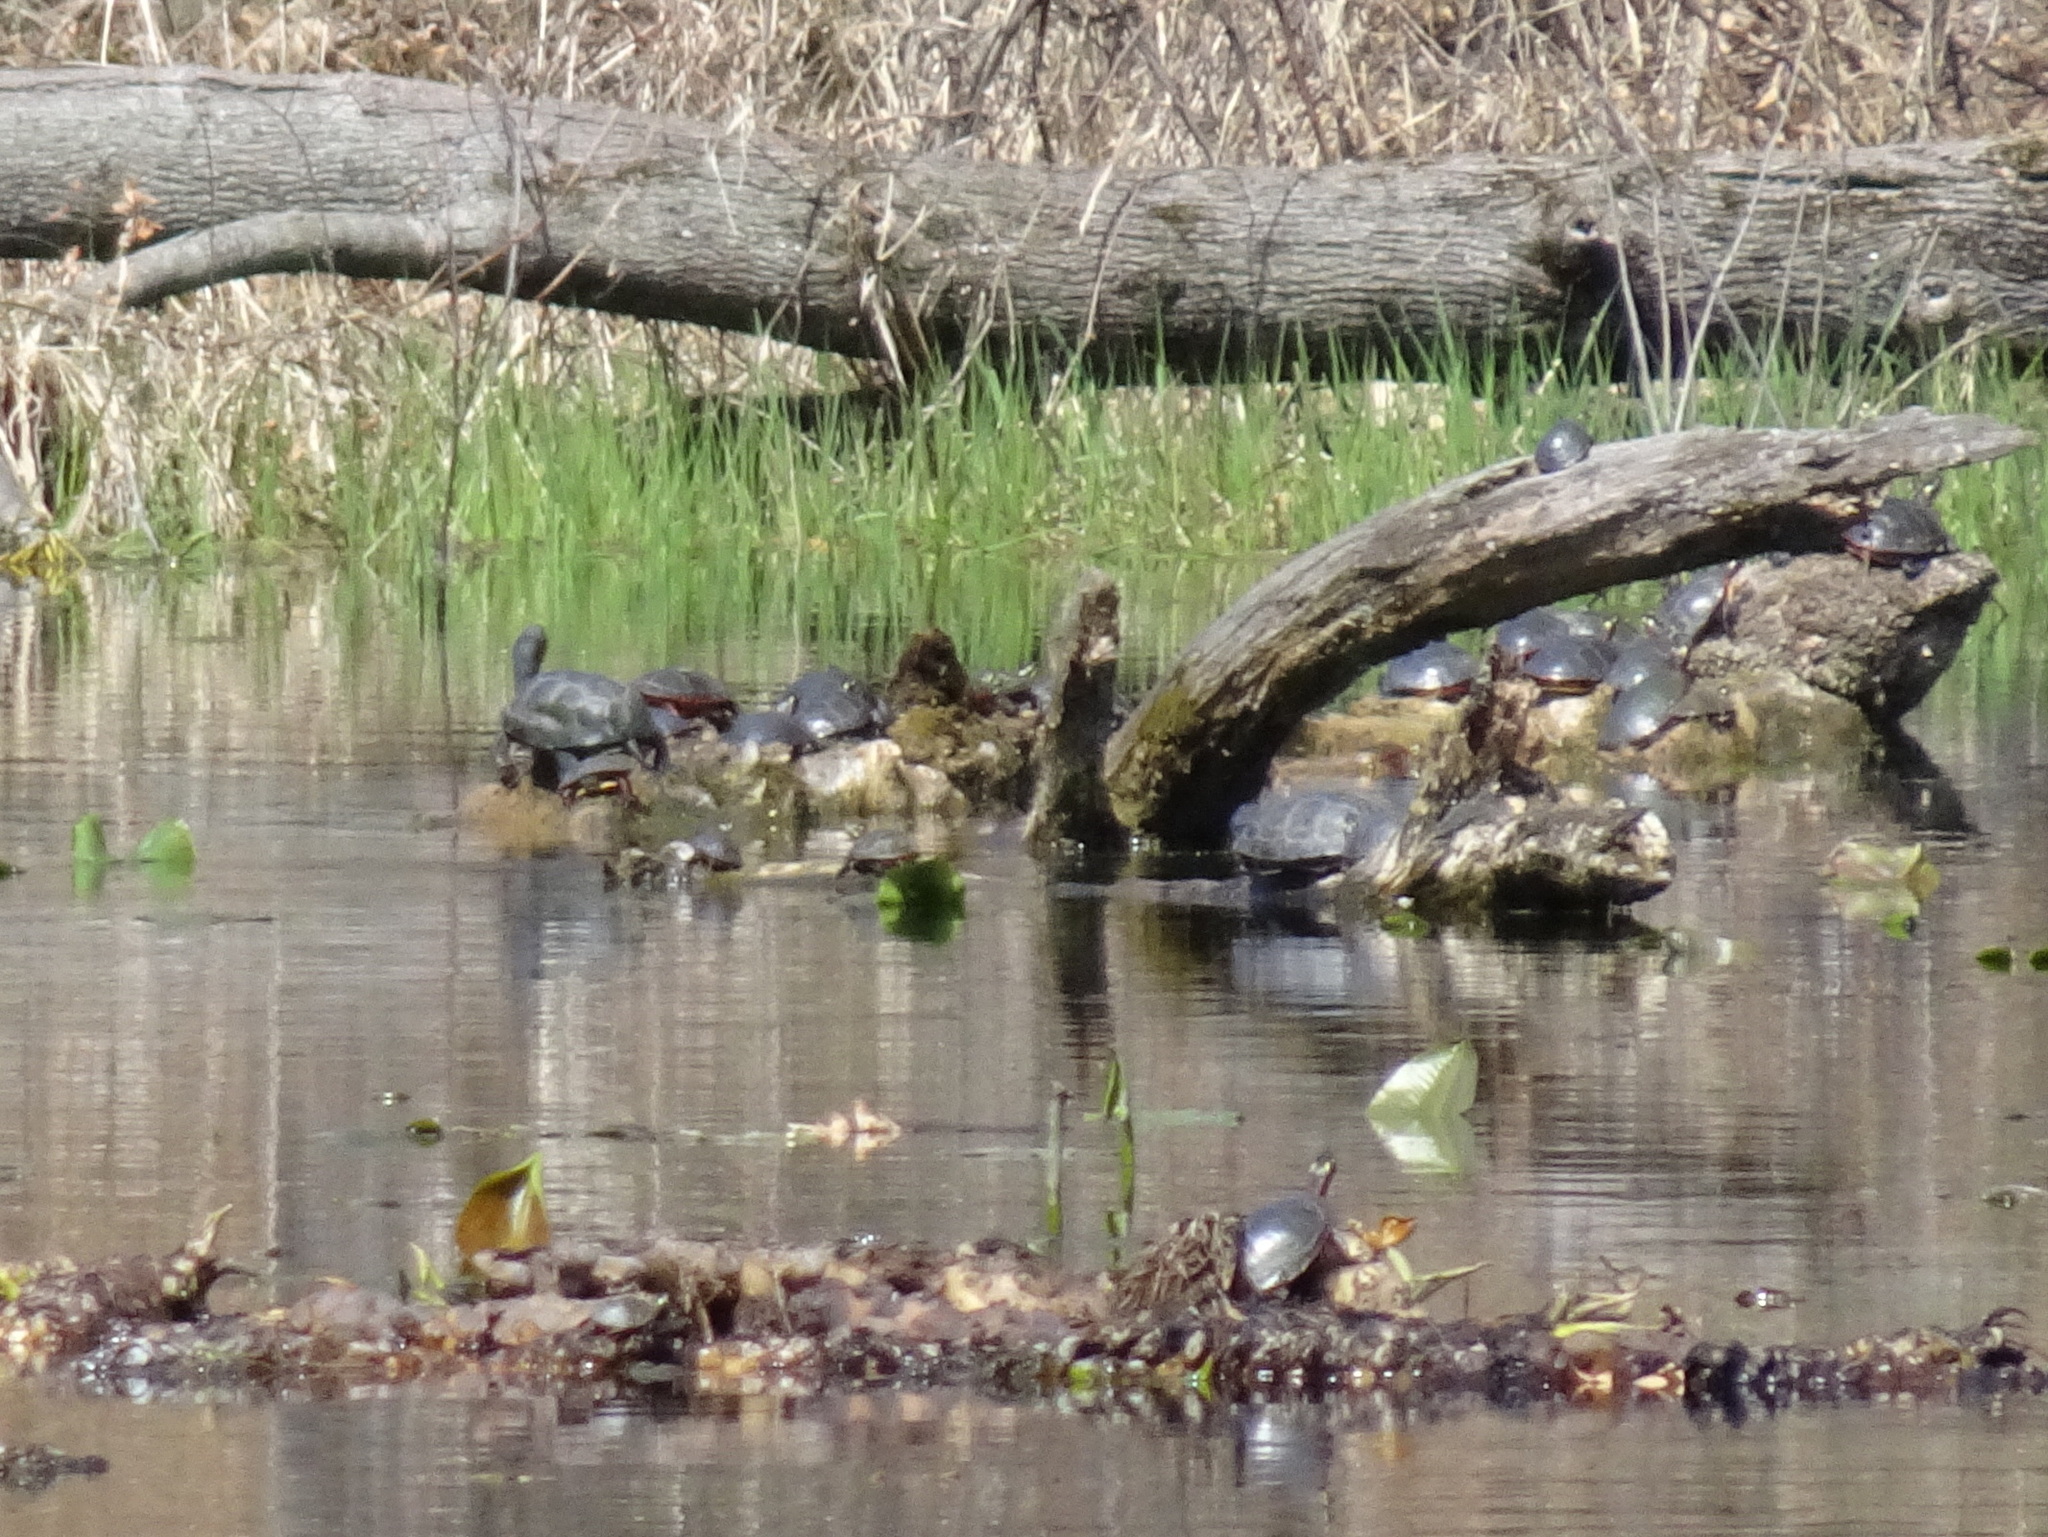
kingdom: Animalia
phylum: Chordata
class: Testudines
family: Emydidae
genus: Emys
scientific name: Emys blandingii
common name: Blanding's turtle
